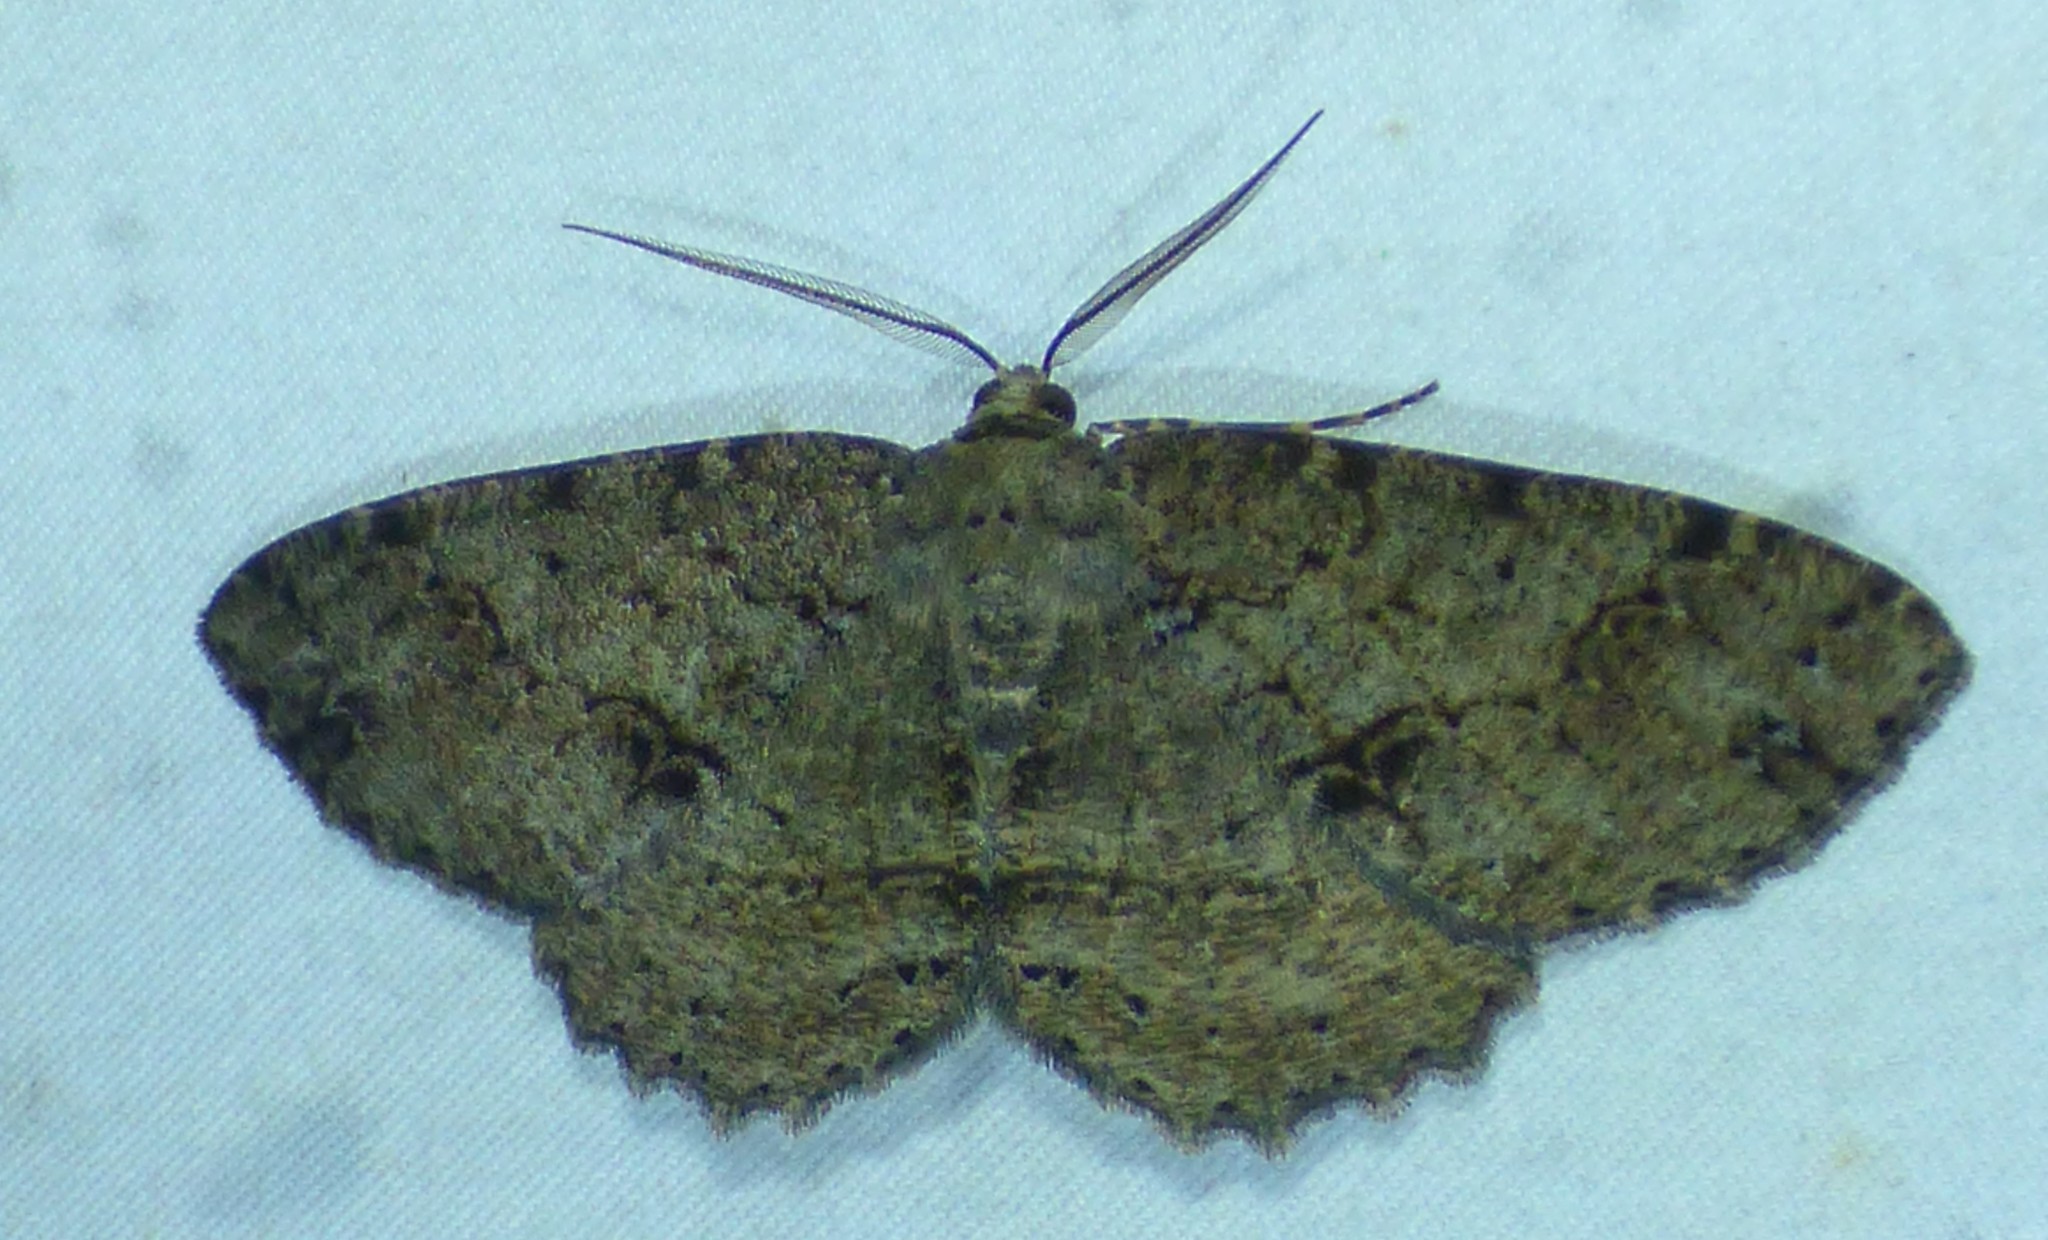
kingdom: Animalia
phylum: Arthropoda
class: Insecta
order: Lepidoptera
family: Geometridae
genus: Melanolophia
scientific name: Melanolophia canadaria
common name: Canadian melanolophia
